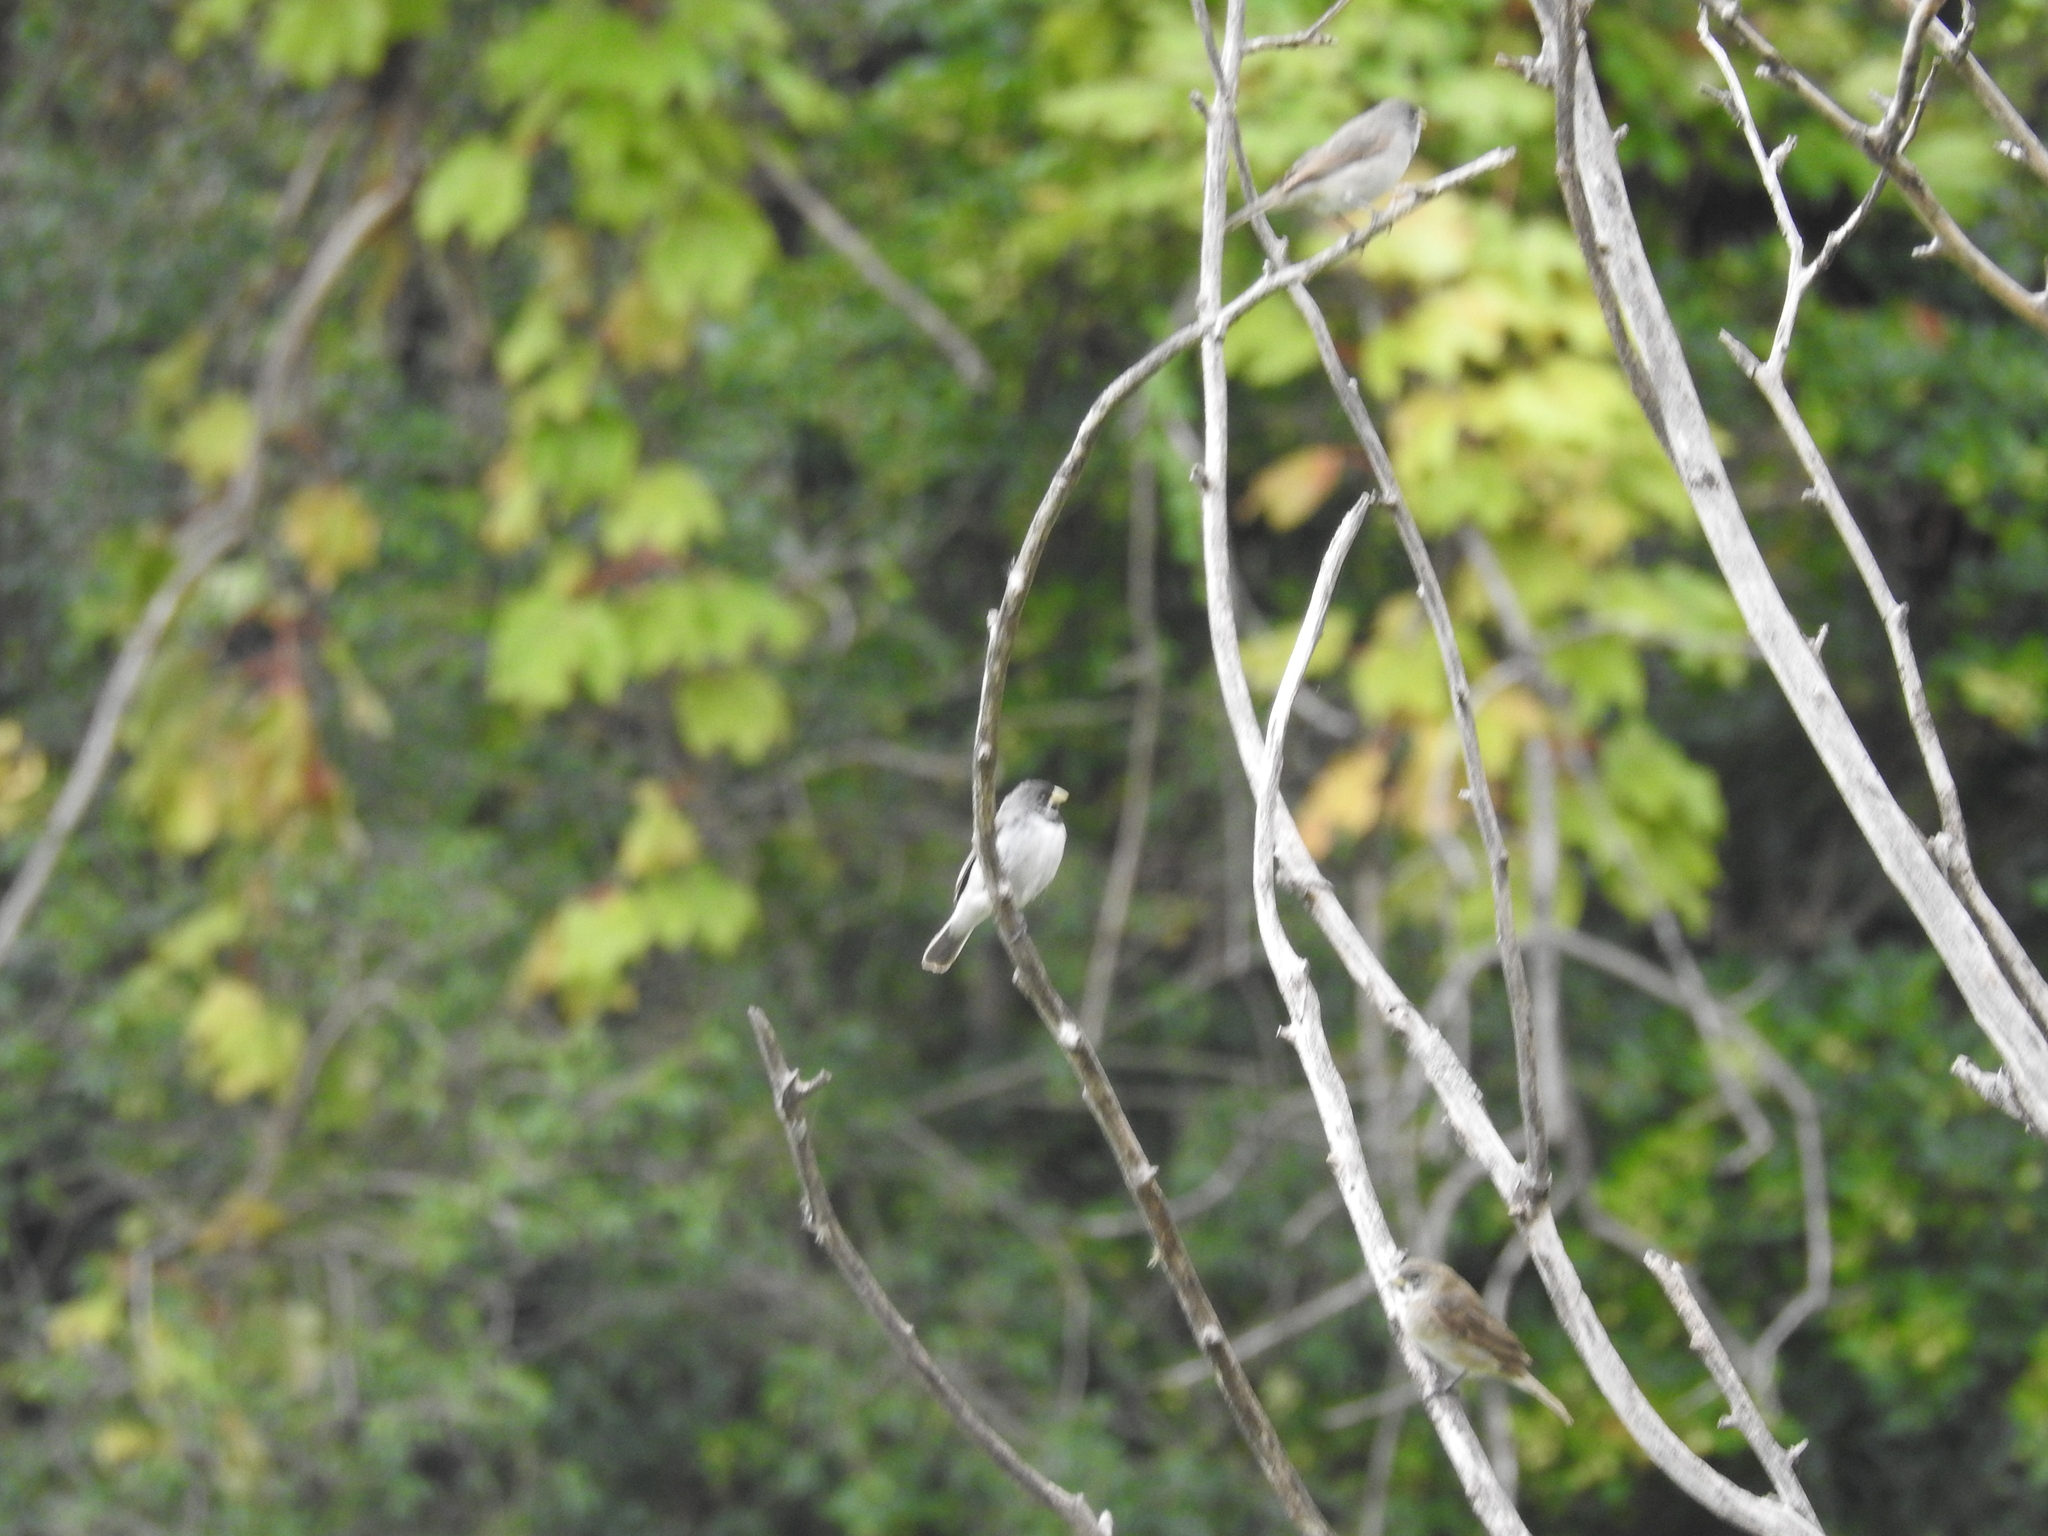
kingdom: Animalia
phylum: Chordata
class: Aves
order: Passeriformes
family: Thraupidae
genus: Sporophila
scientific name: Sporophila caerulescens
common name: Double-collared seedeater
